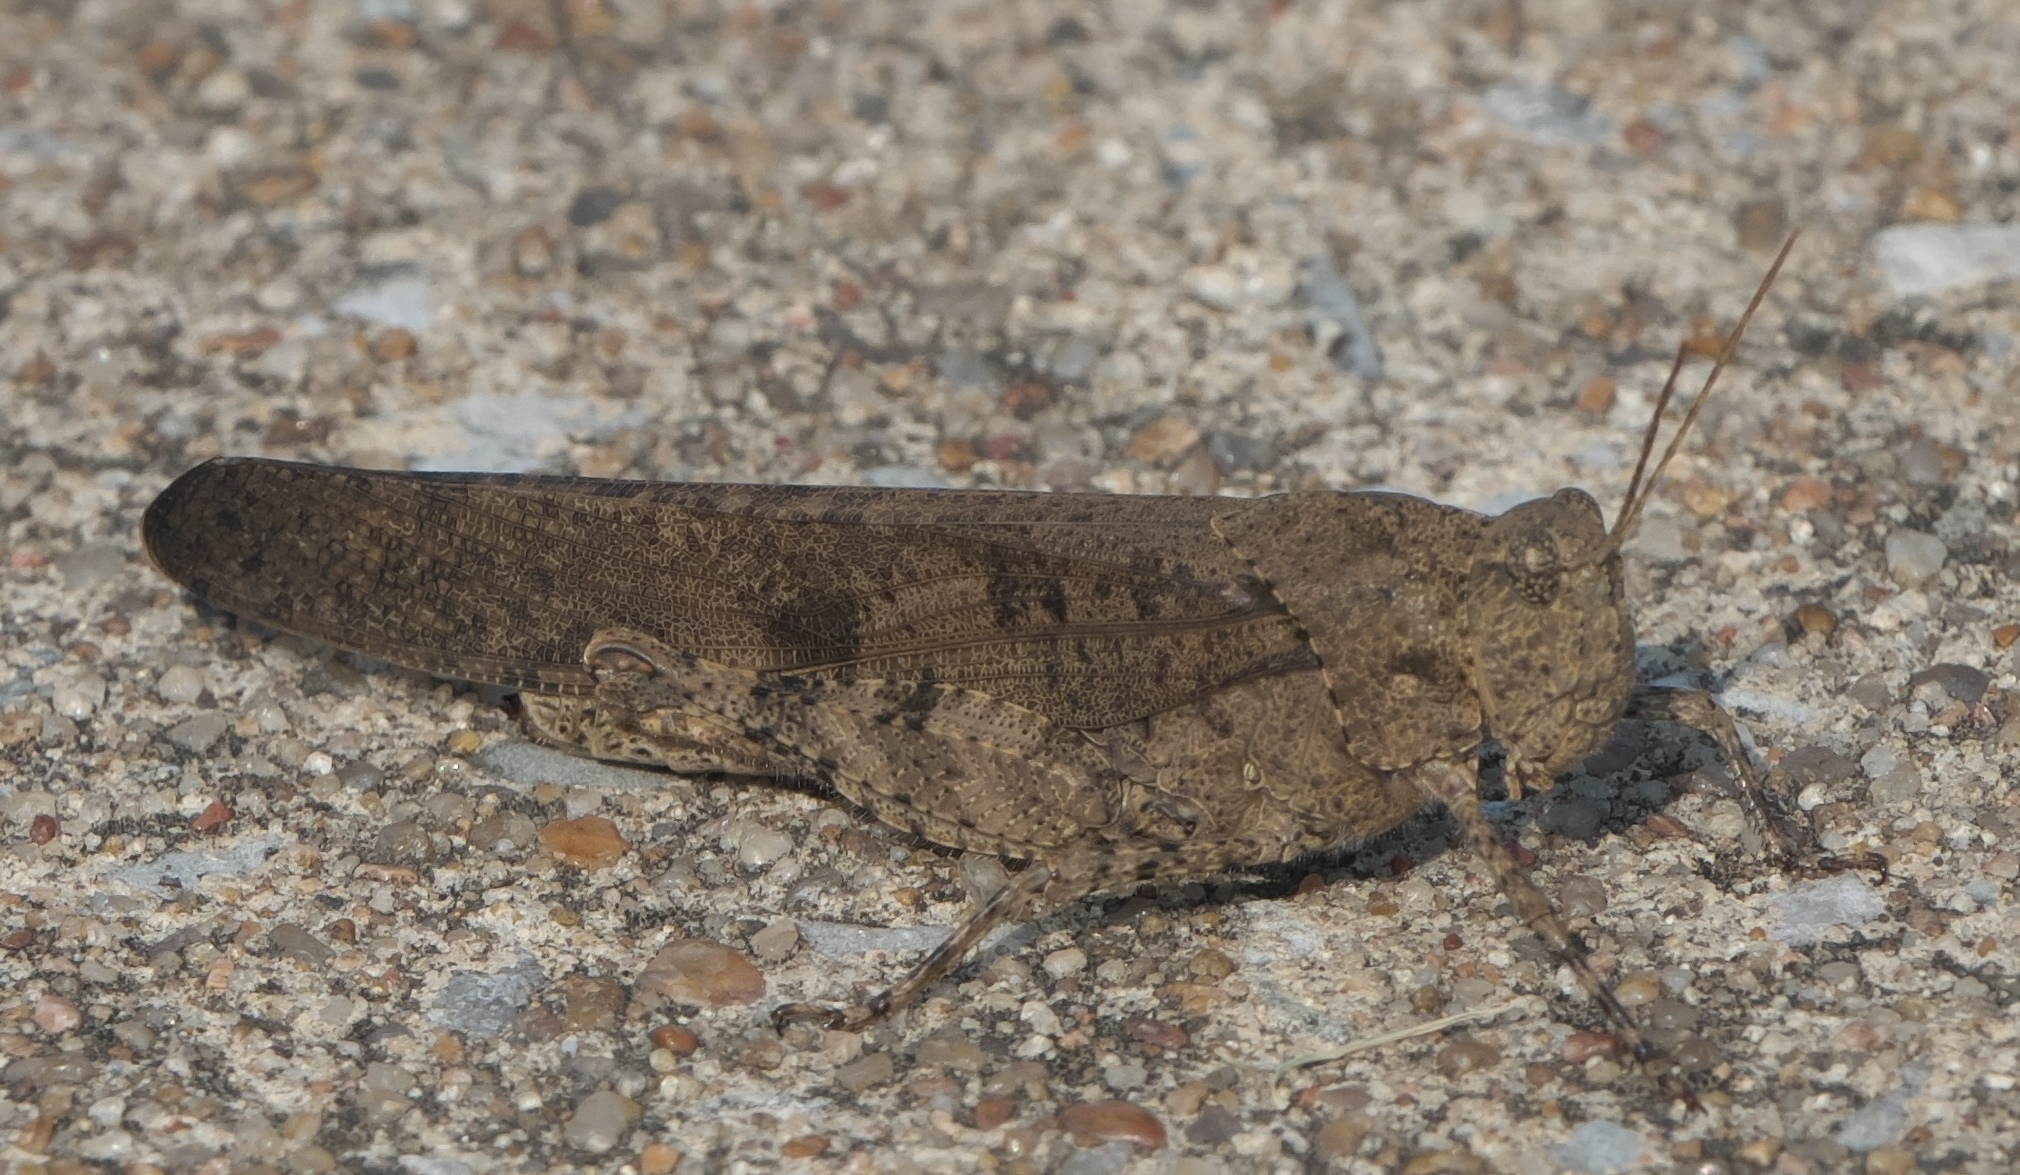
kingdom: Animalia
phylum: Arthropoda
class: Insecta
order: Orthoptera
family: Acrididae
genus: Dissosteira
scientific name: Dissosteira carolina
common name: Carolina grasshopper
